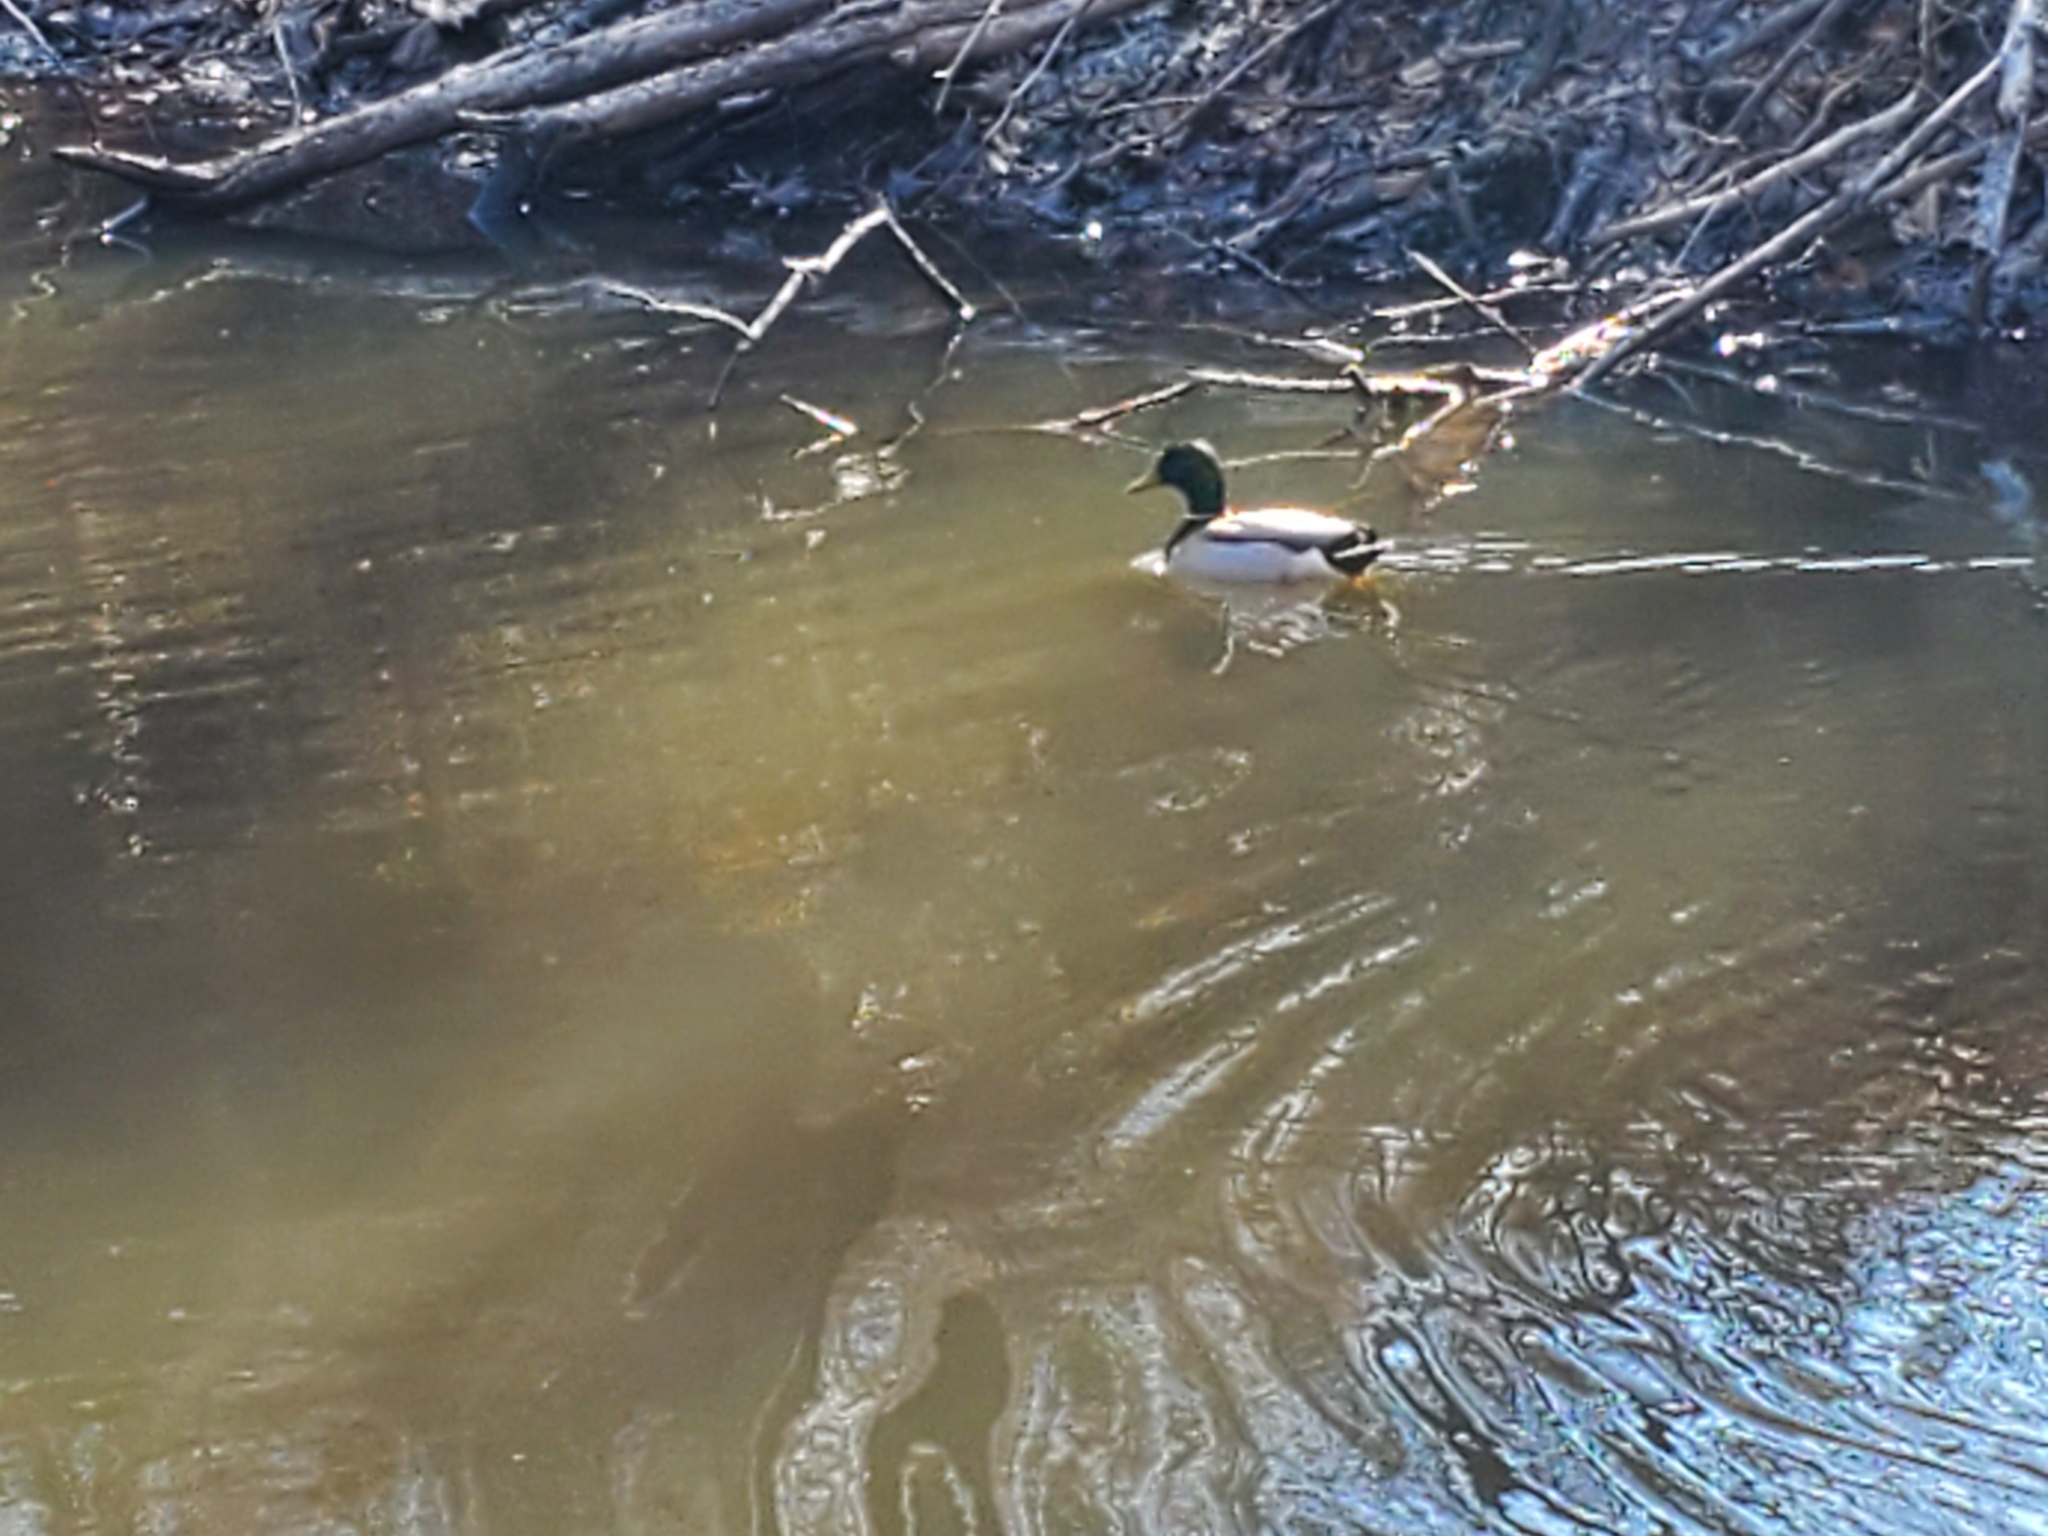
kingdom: Animalia
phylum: Chordata
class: Aves
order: Anseriformes
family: Anatidae
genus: Anas
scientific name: Anas platyrhynchos
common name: Mallard
